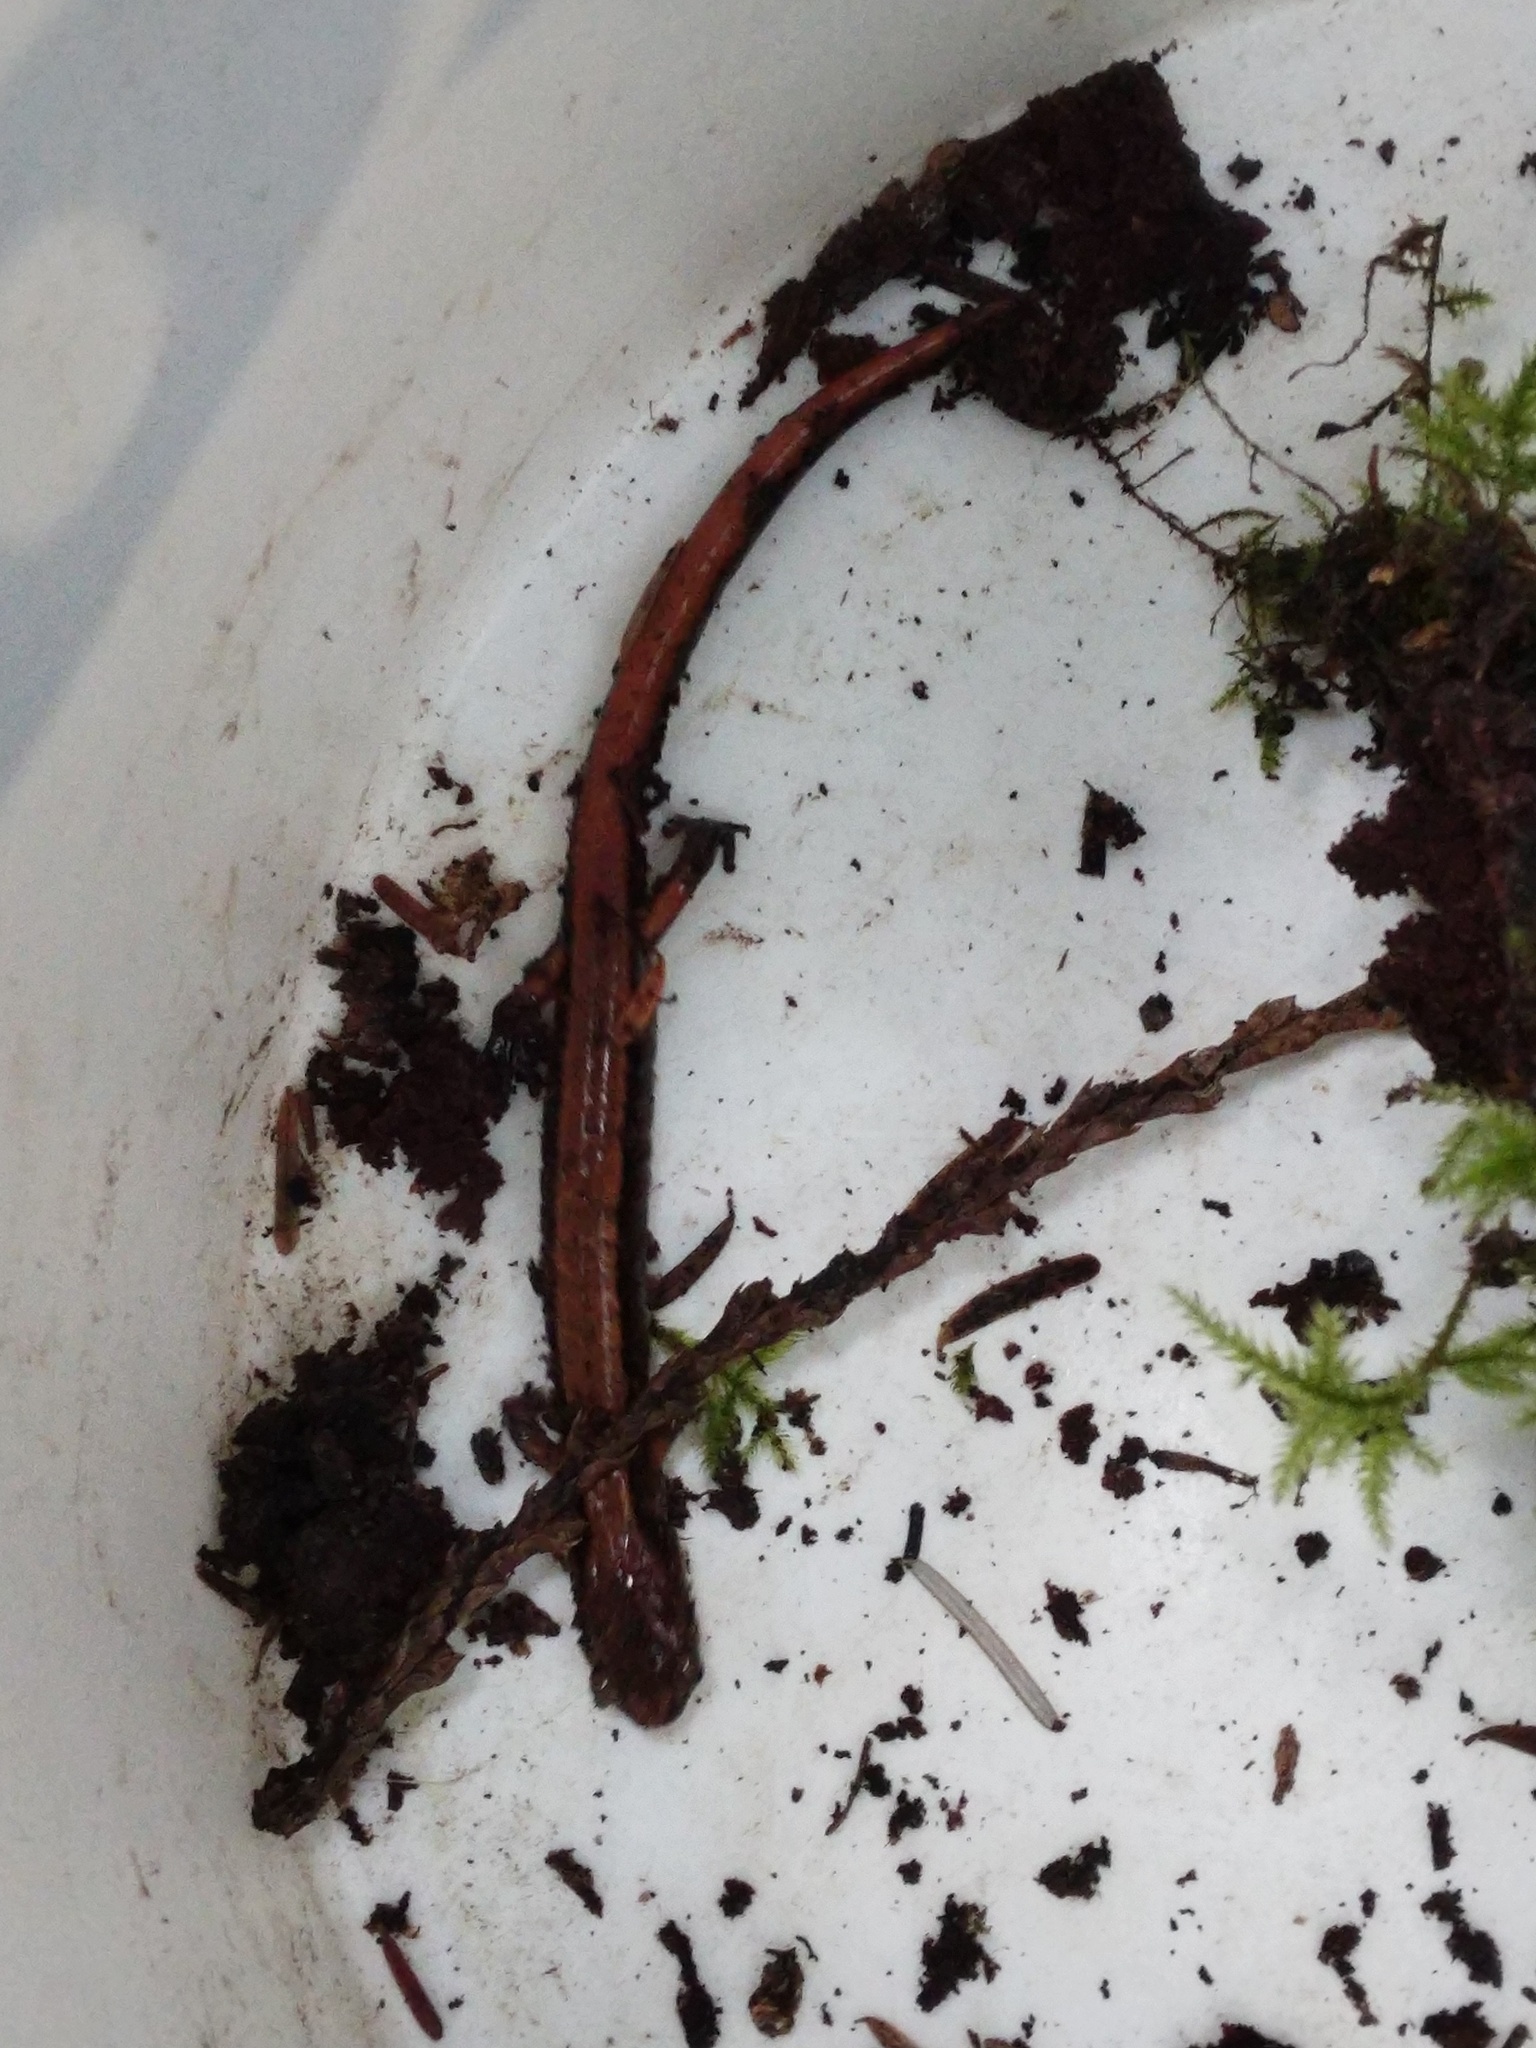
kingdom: Animalia
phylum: Chordata
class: Amphibia
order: Caudata
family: Plethodontidae
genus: Plethodon
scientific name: Plethodon vehiculum
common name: Western red-backed salamander
